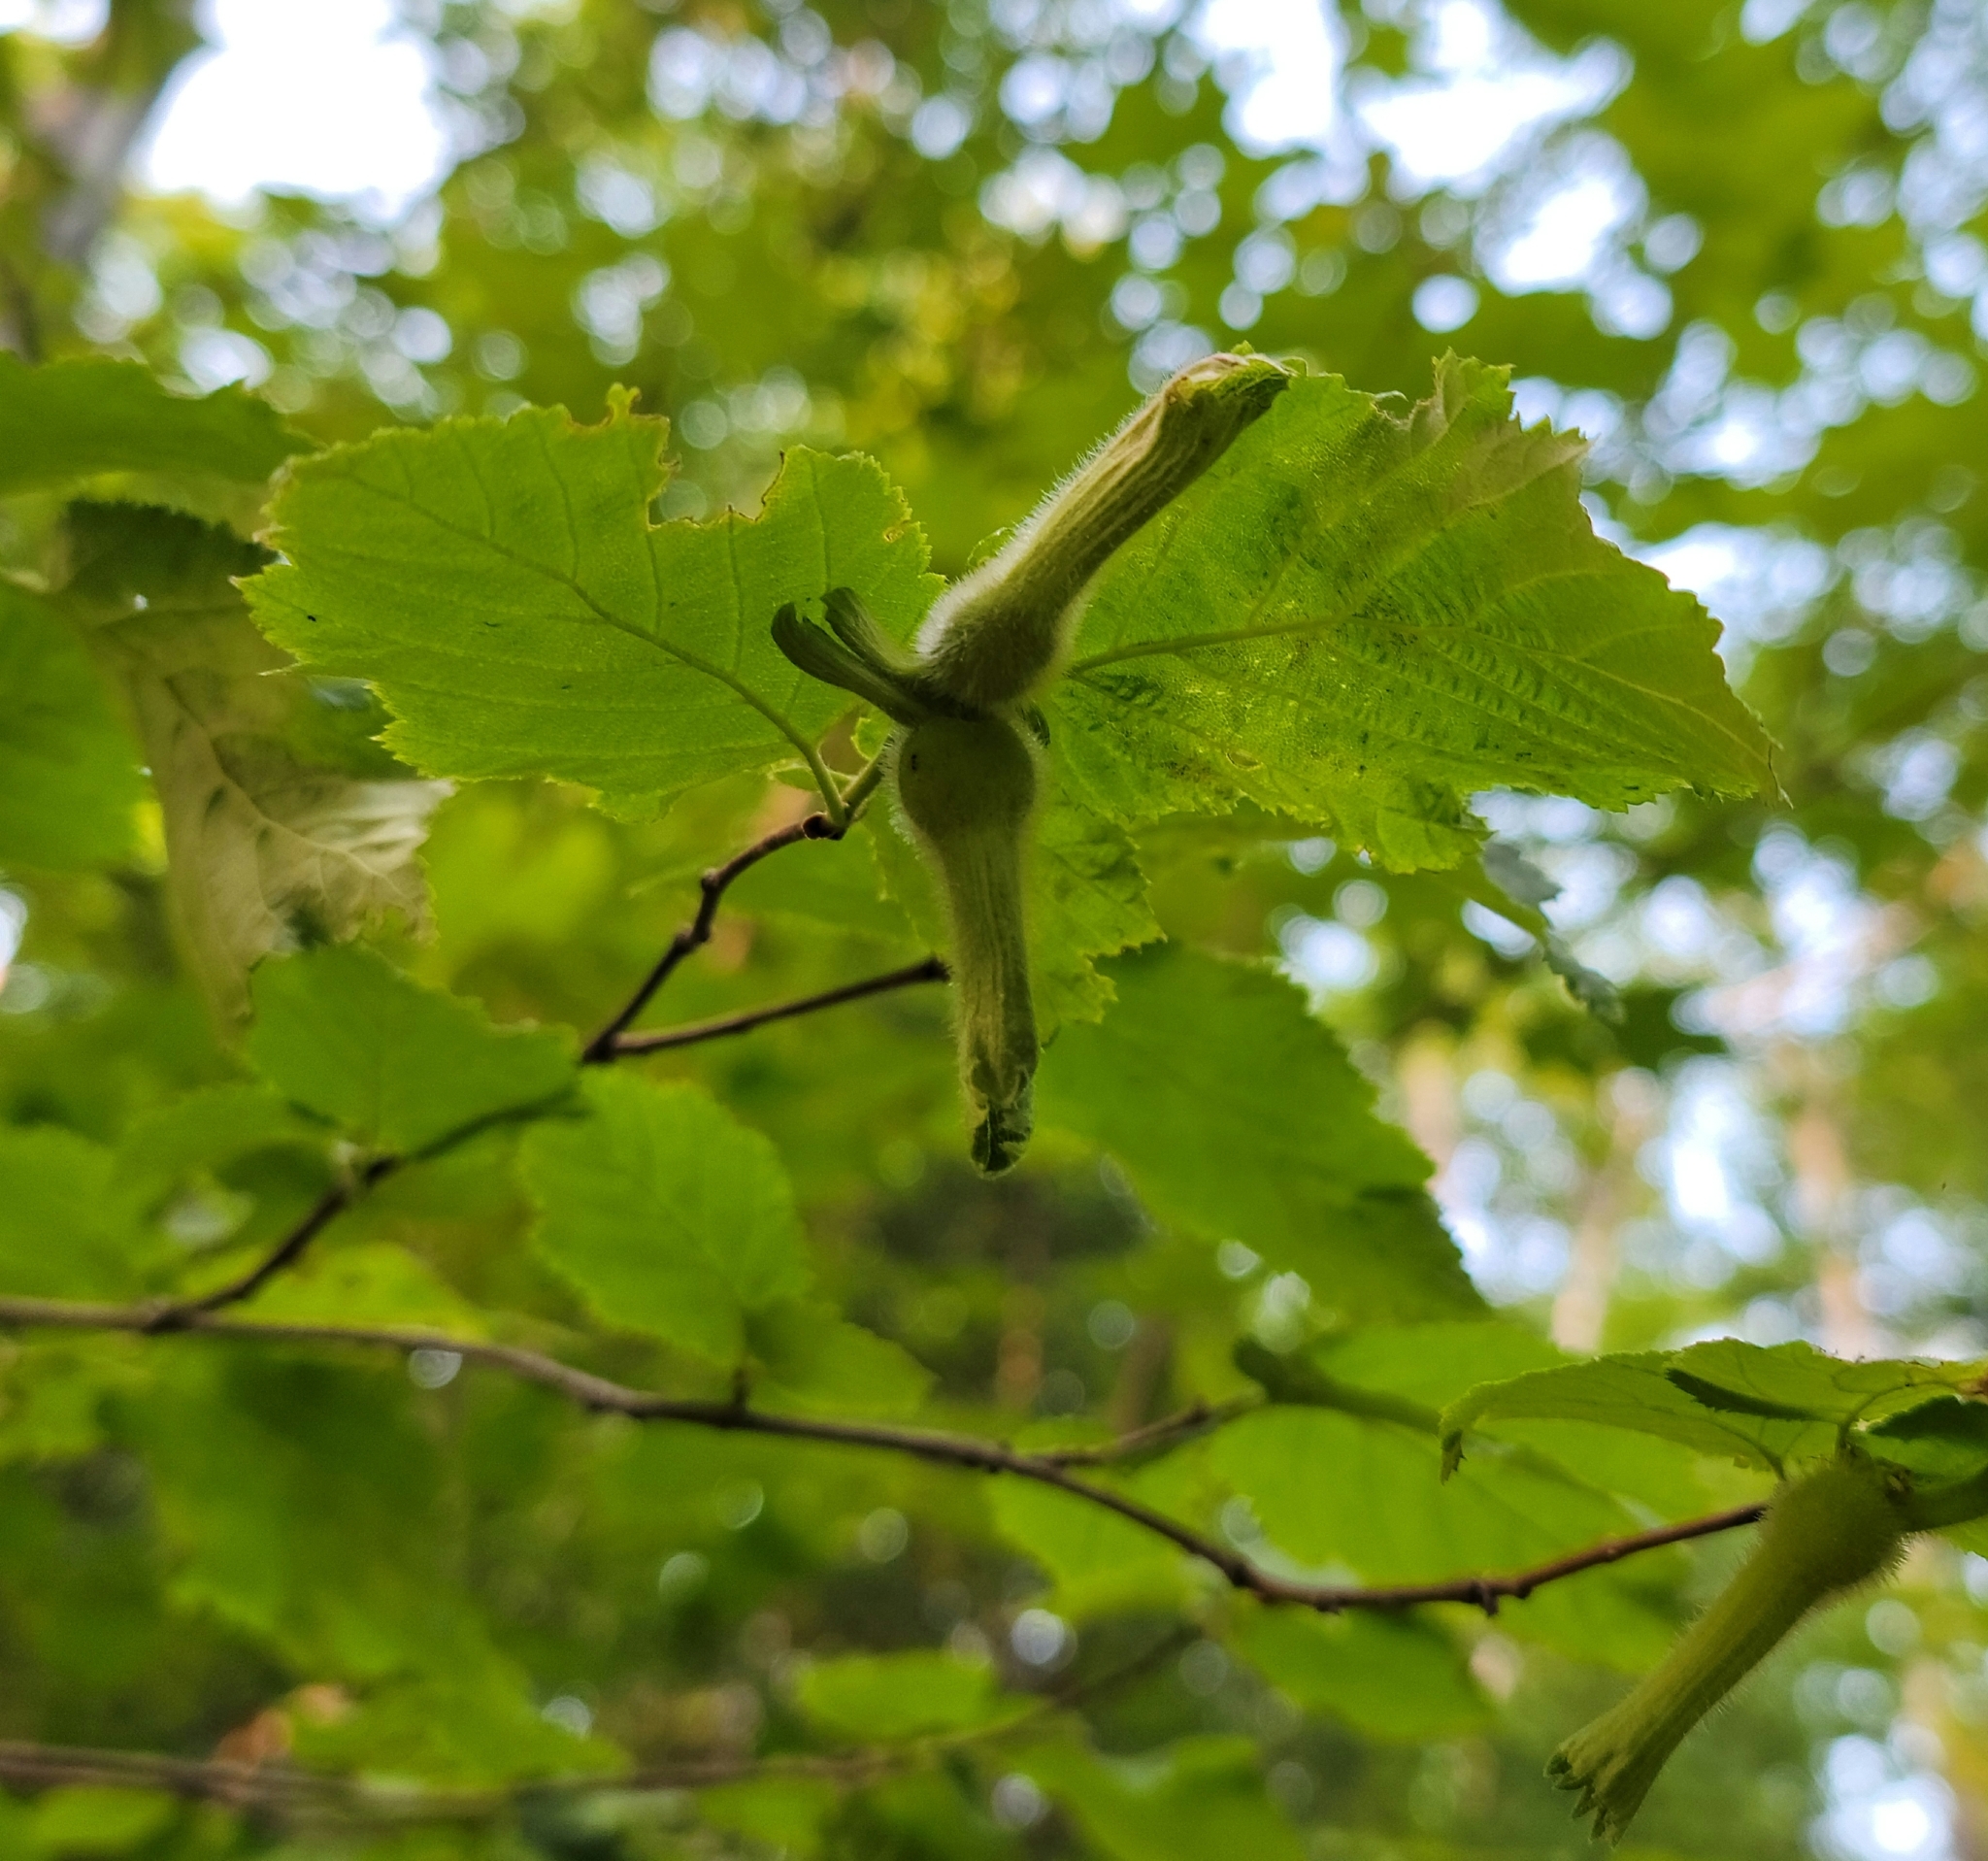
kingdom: Plantae
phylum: Tracheophyta
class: Magnoliopsida
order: Fagales
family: Betulaceae
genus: Corylus
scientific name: Corylus cornuta
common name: Beaked hazel
